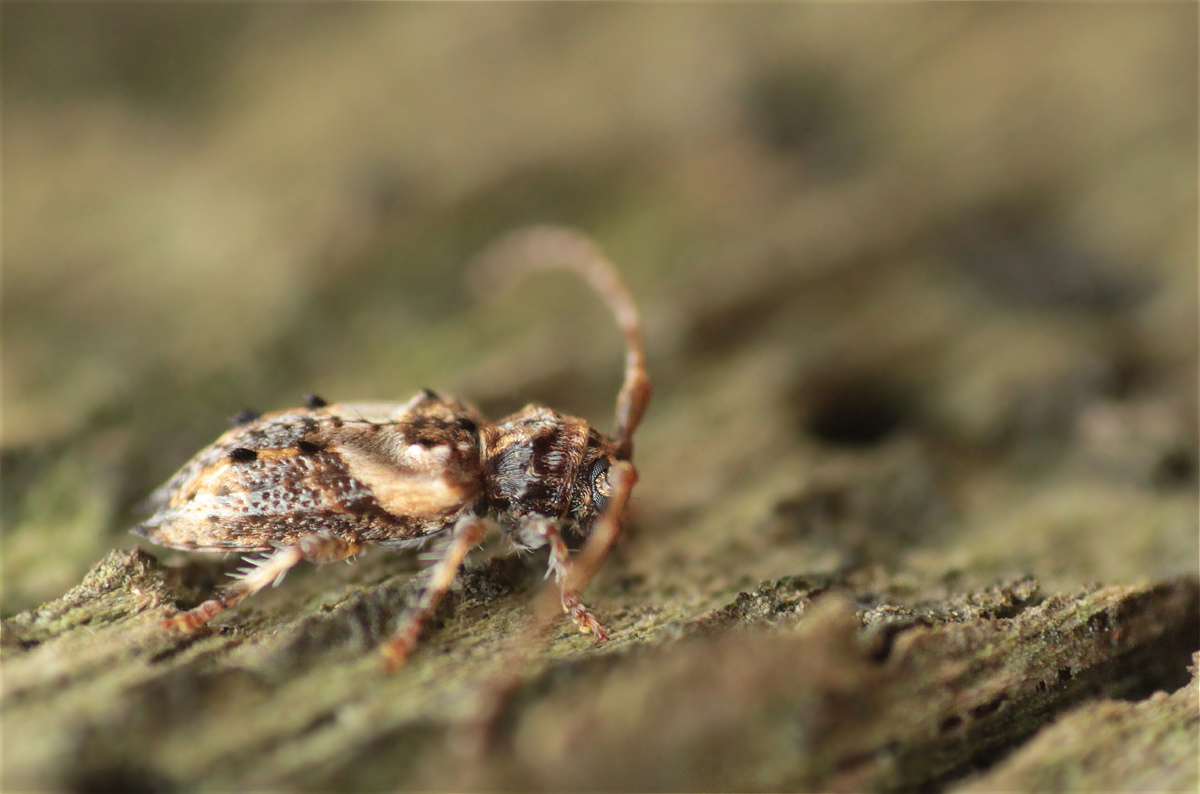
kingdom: Animalia
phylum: Arthropoda
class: Insecta
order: Coleoptera
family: Cerambycidae
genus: Pogonocherus
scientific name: Pogonocherus hispidus
